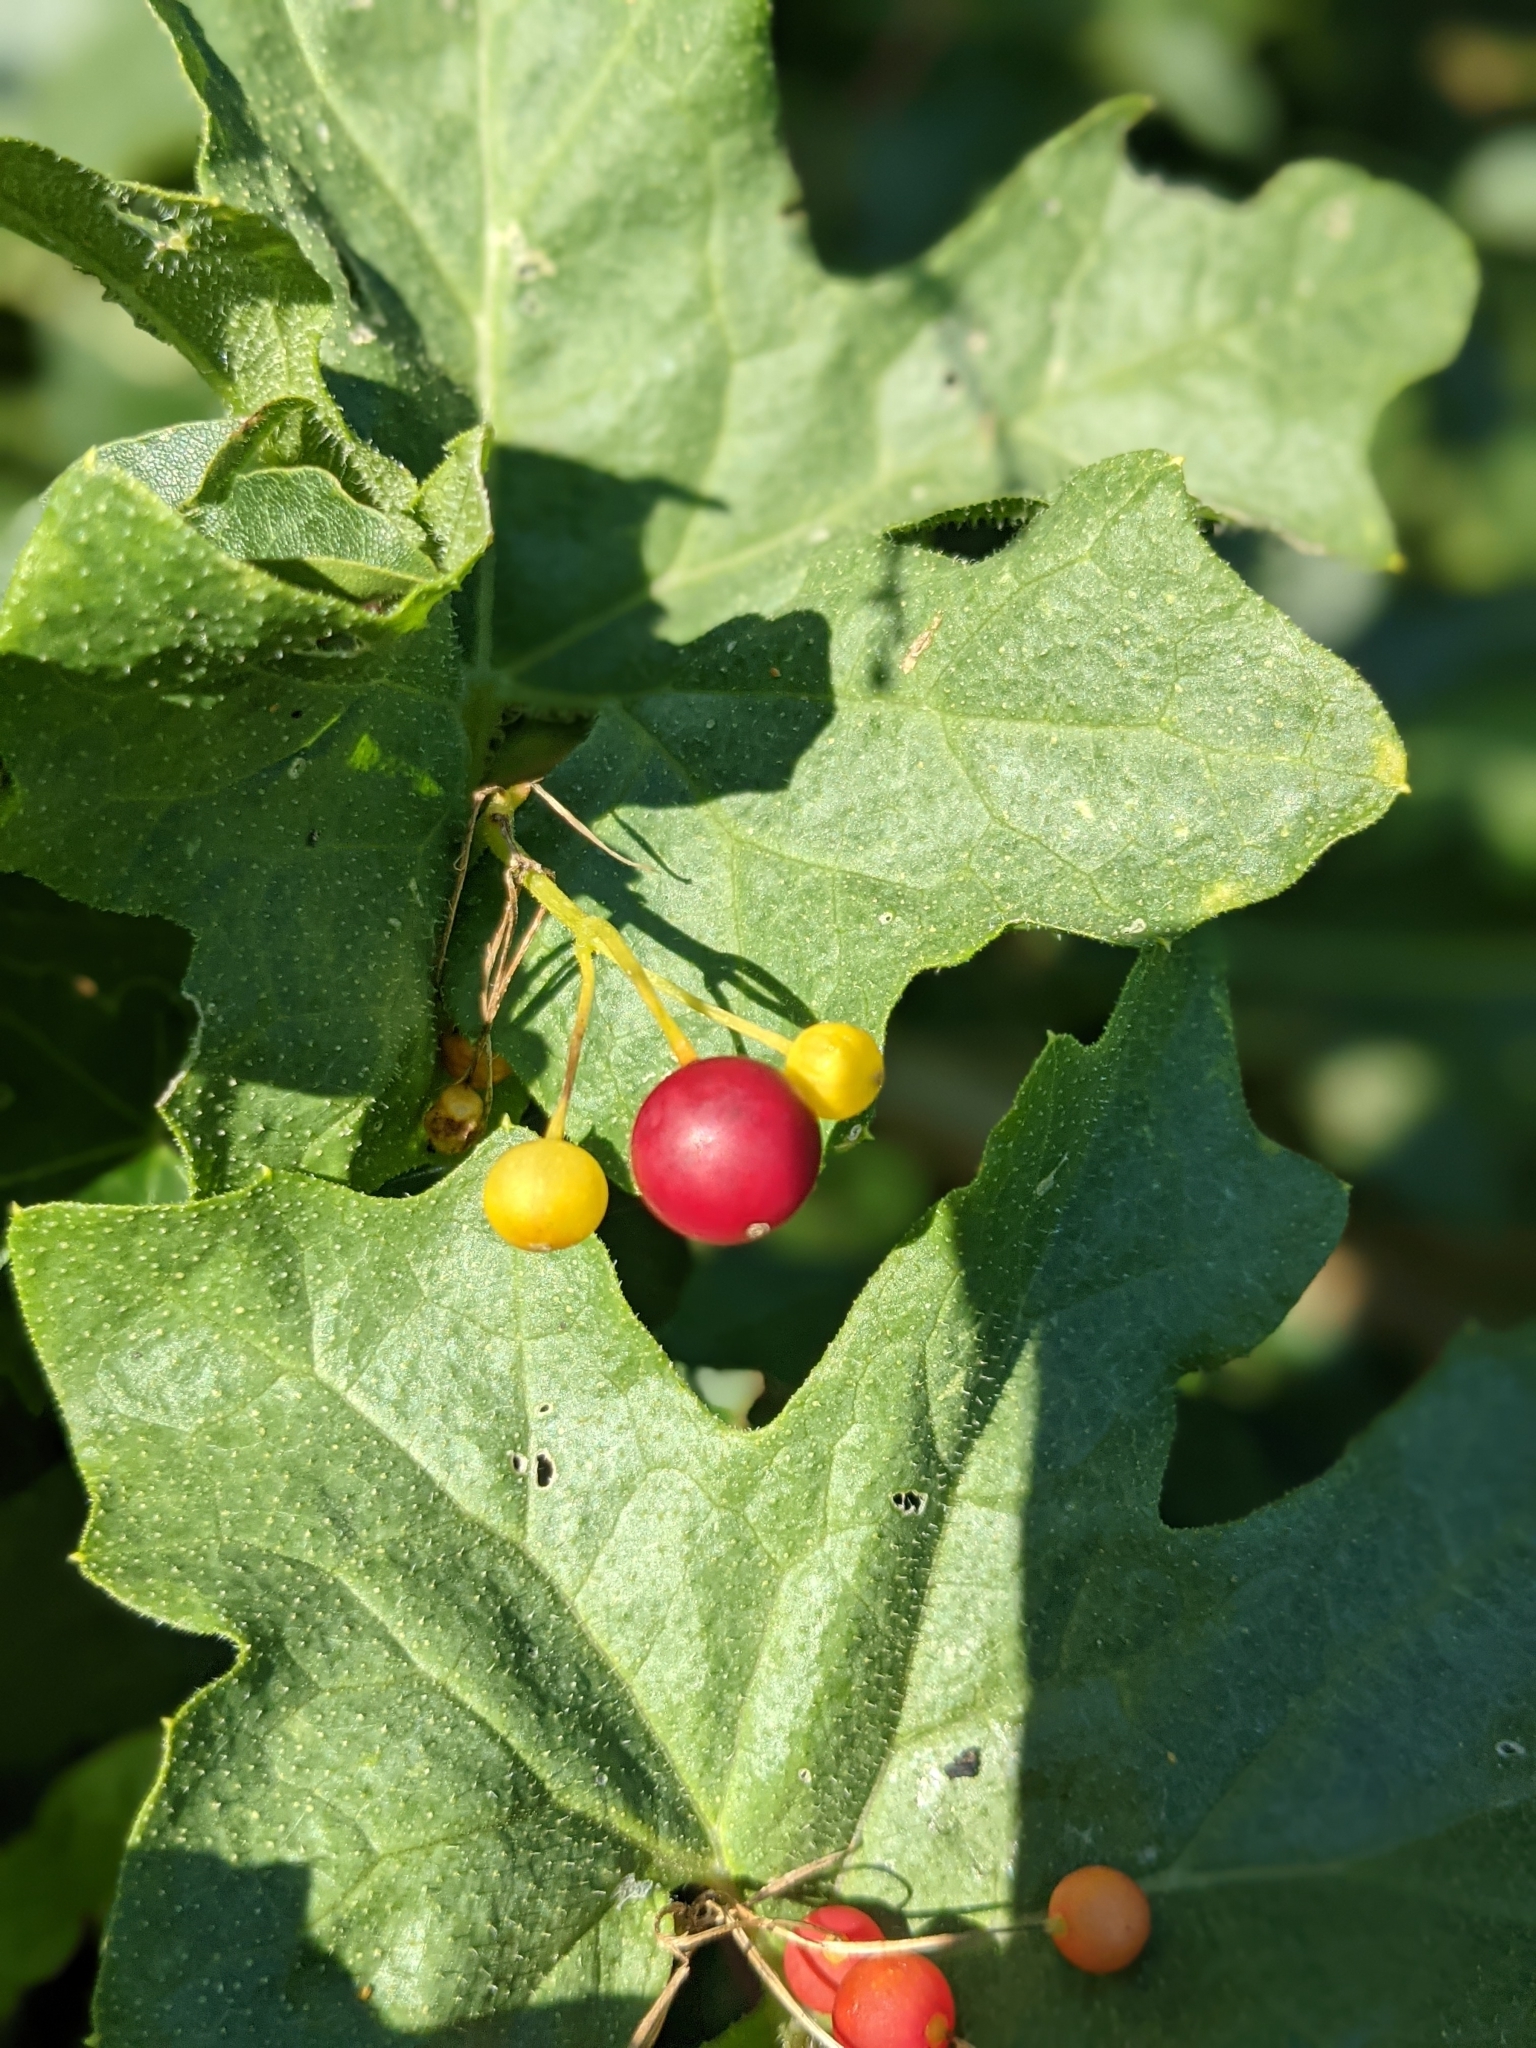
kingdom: Plantae
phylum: Tracheophyta
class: Magnoliopsida
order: Cucurbitales
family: Cucurbitaceae
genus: Bryonia
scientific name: Bryonia cretica
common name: Cretan bryony
